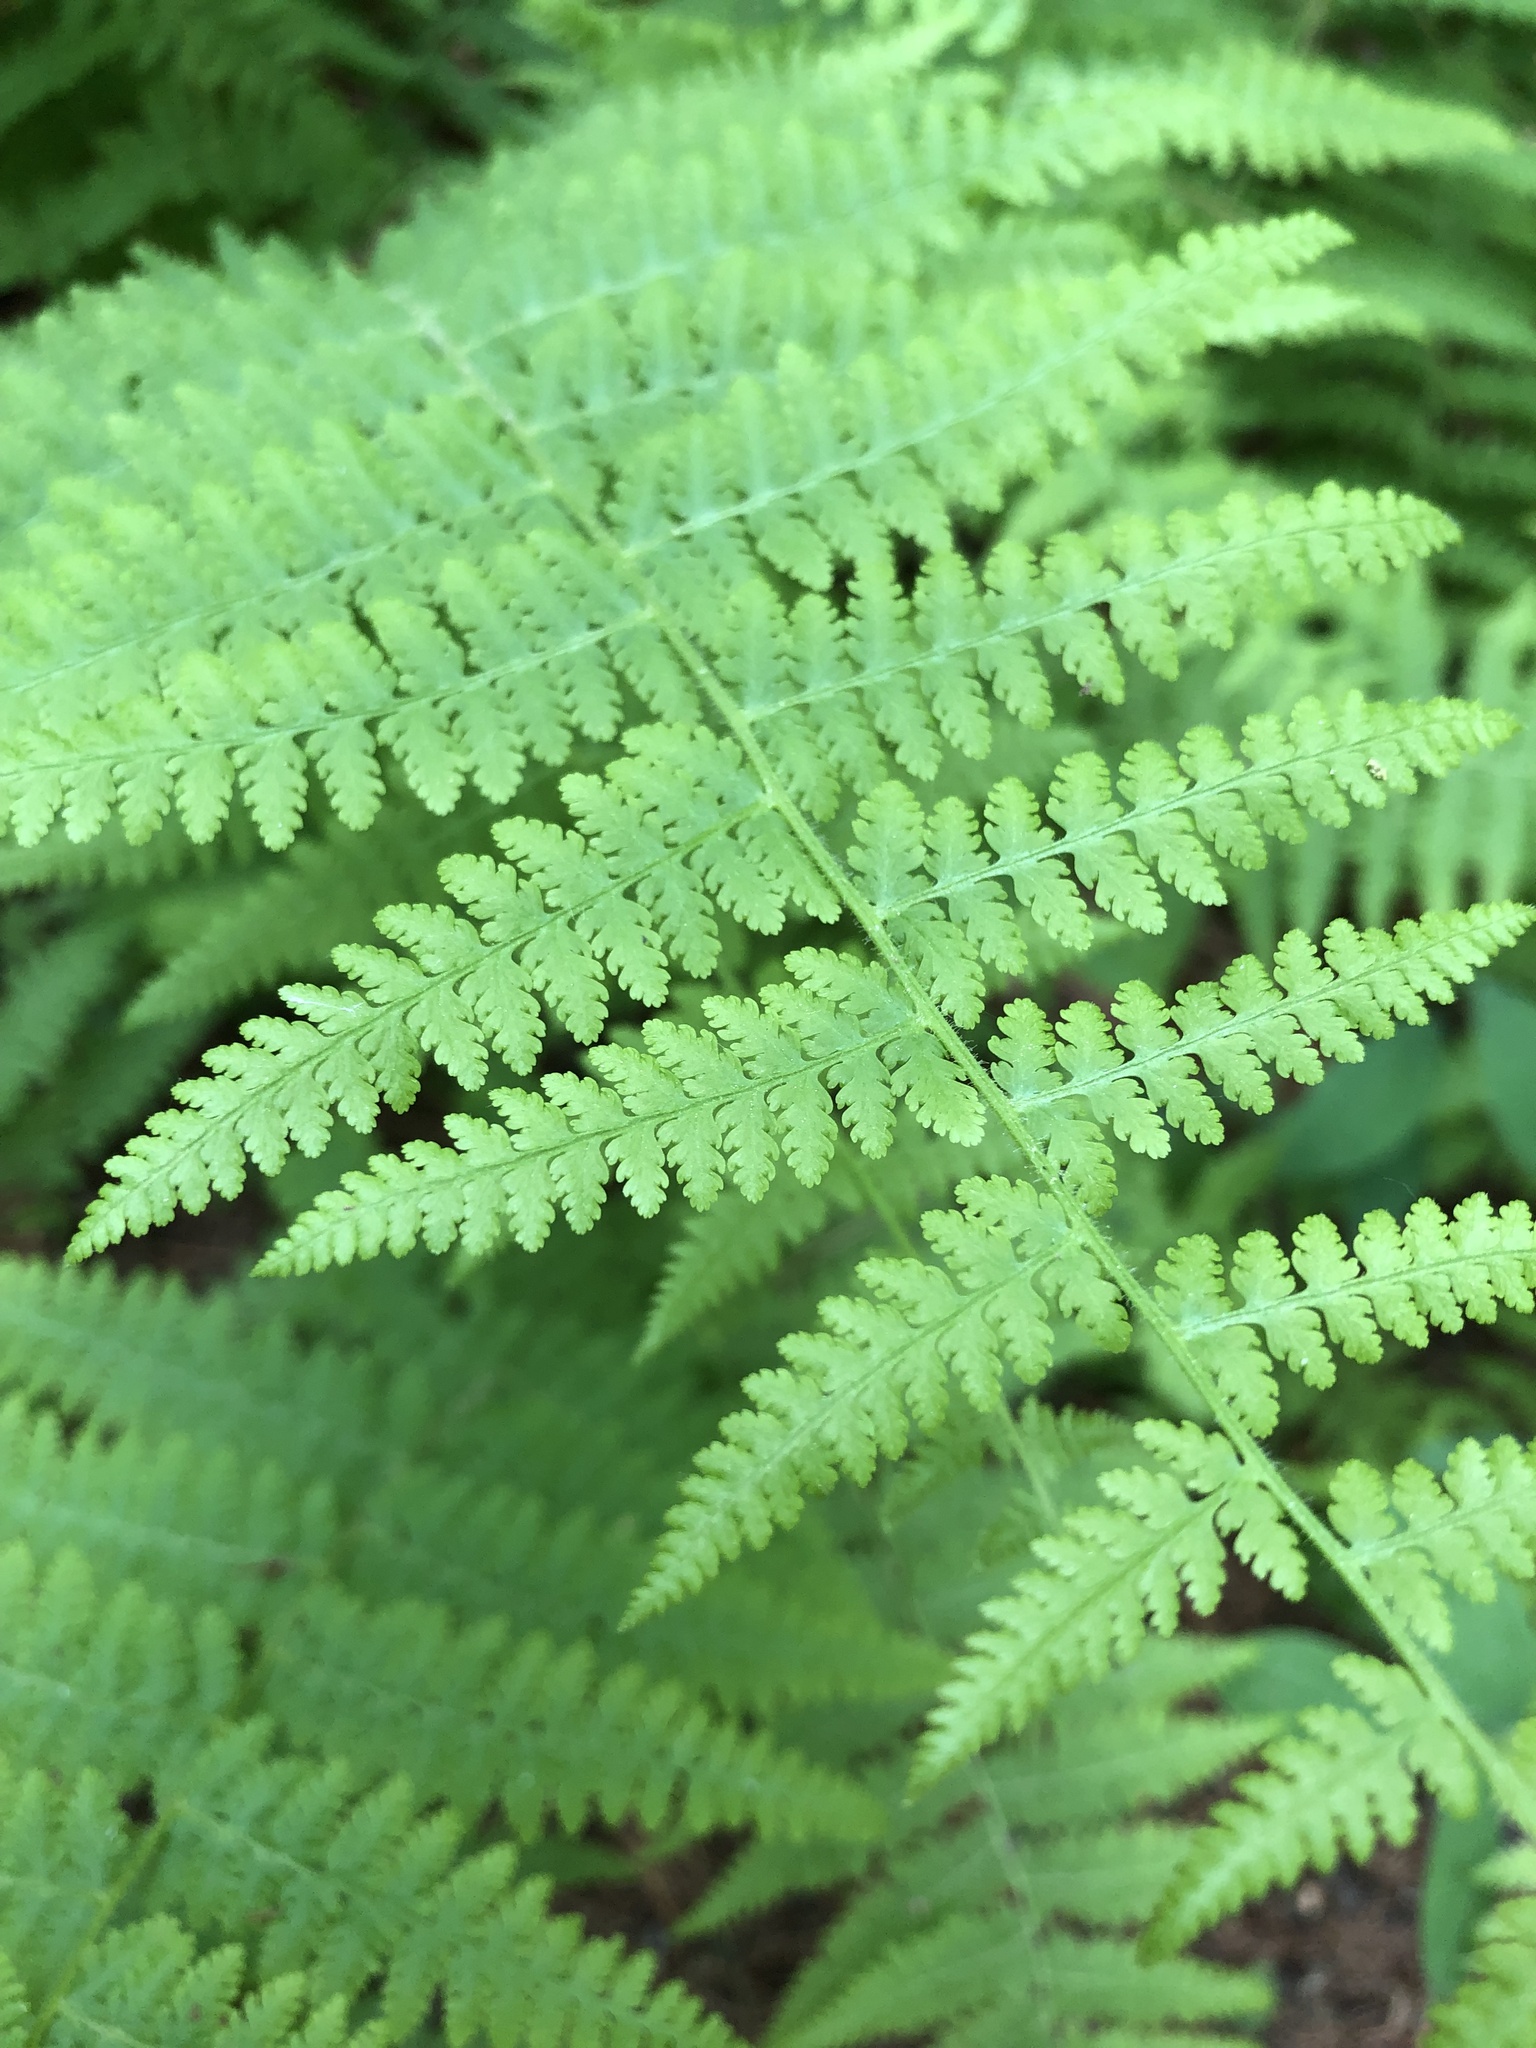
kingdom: Plantae
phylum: Tracheophyta
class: Polypodiopsida
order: Polypodiales
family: Dennstaedtiaceae
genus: Sitobolium
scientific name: Sitobolium punctilobum
